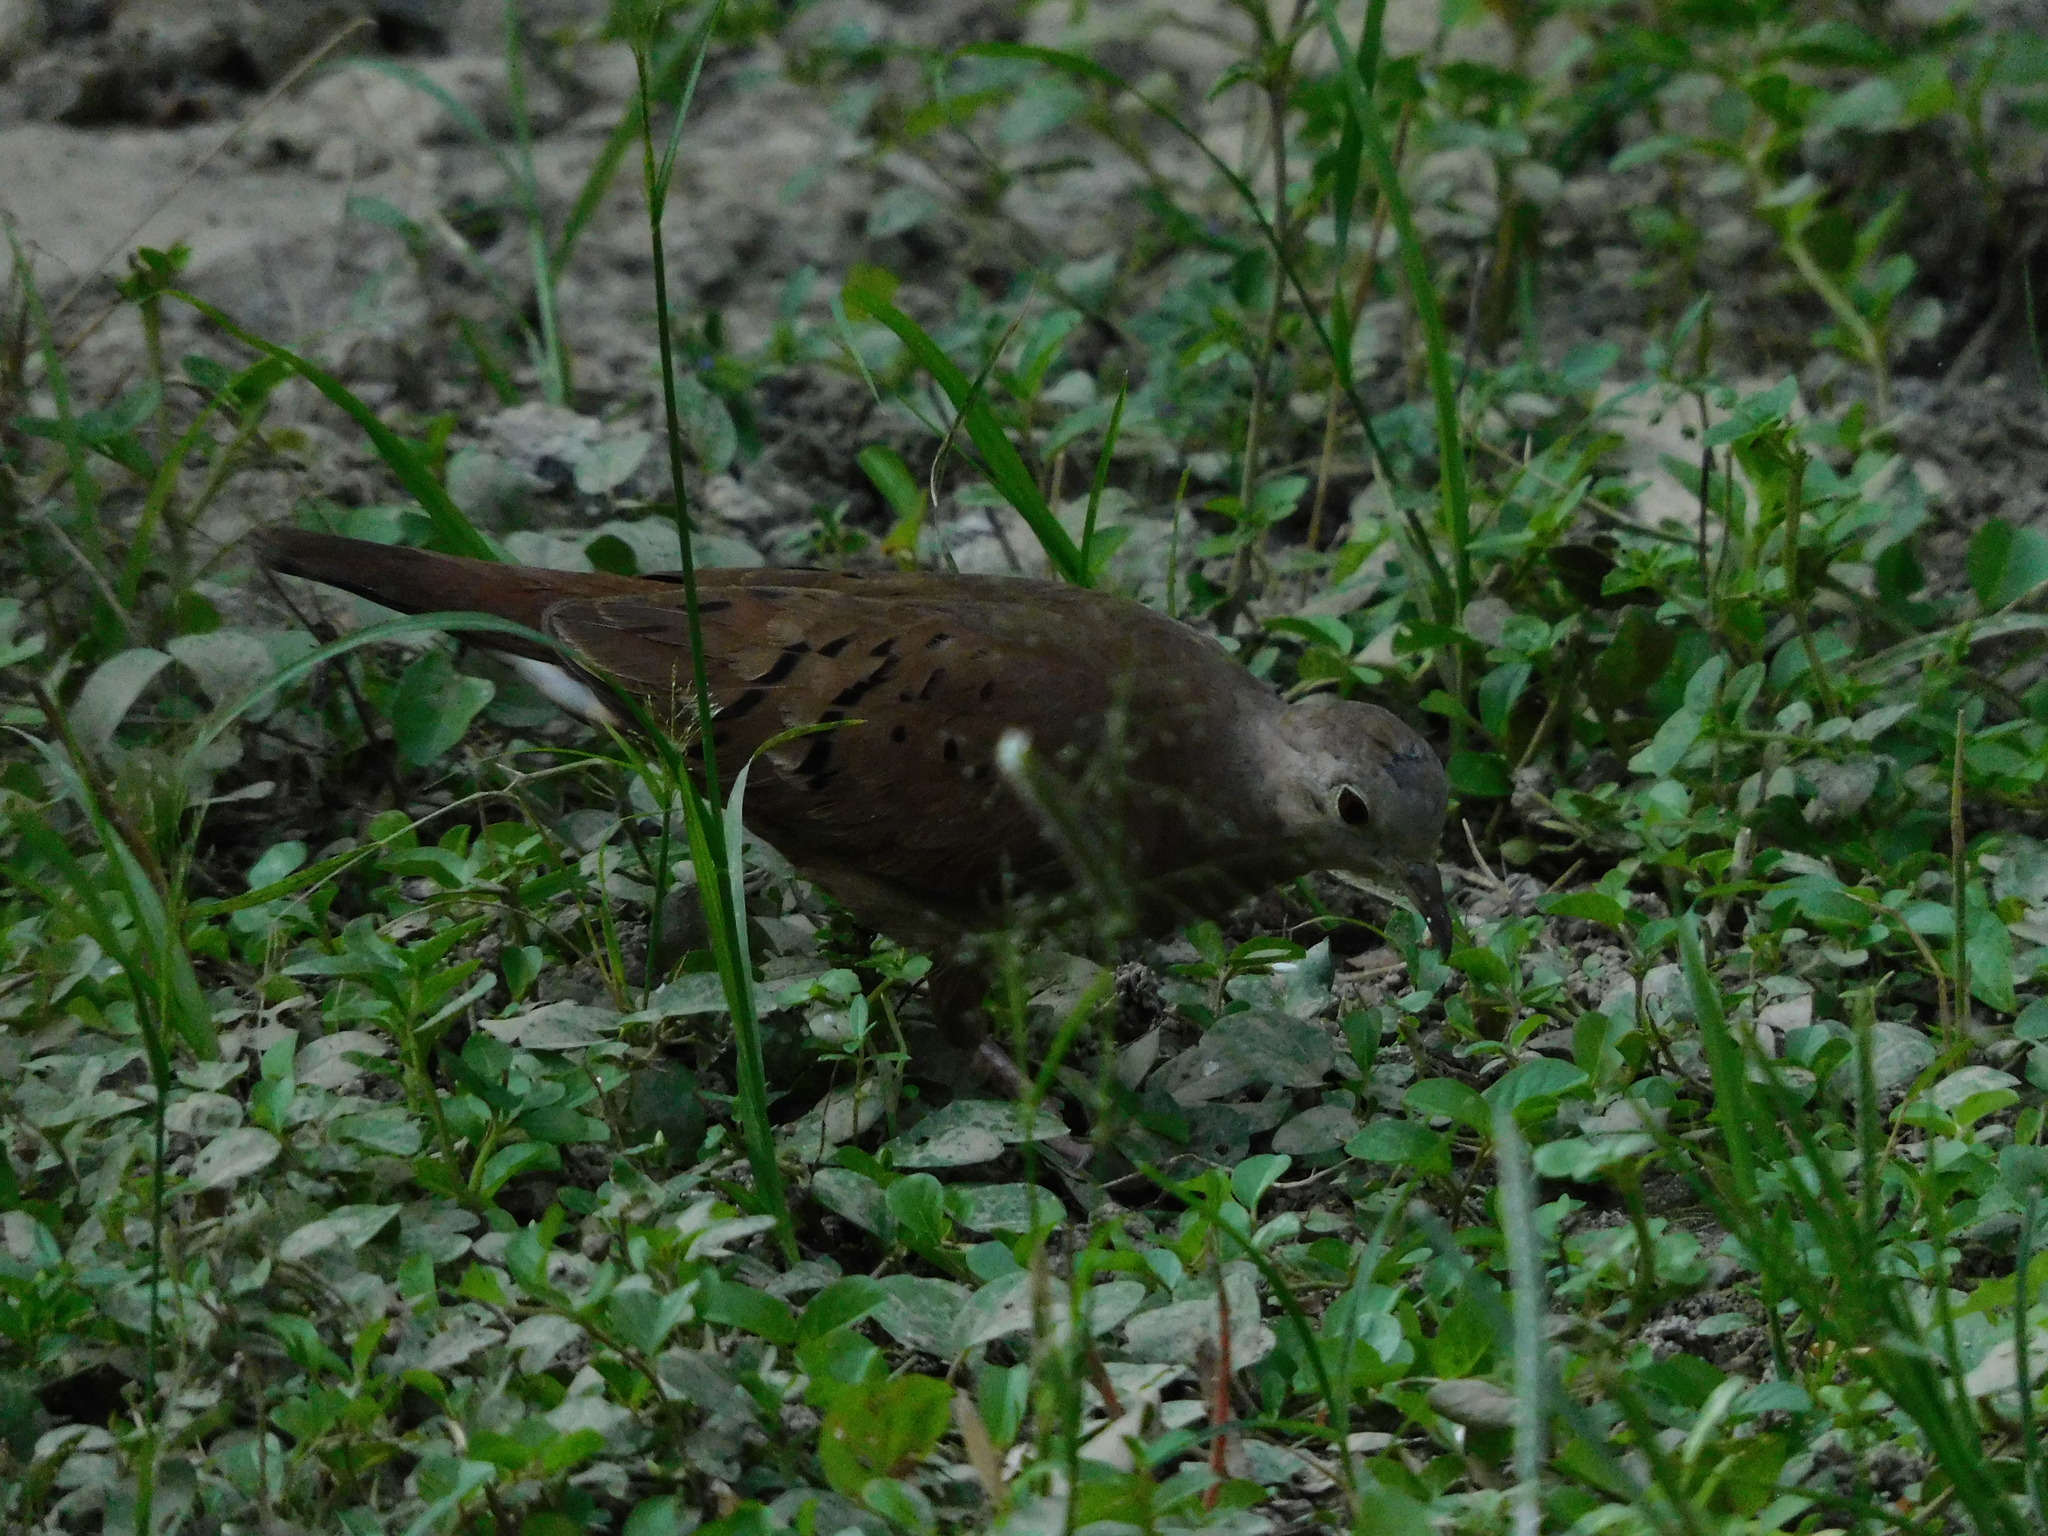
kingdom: Animalia
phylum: Chordata
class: Aves
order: Columbiformes
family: Columbidae
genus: Columbina
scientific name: Columbina talpacoti
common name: Ruddy ground dove
